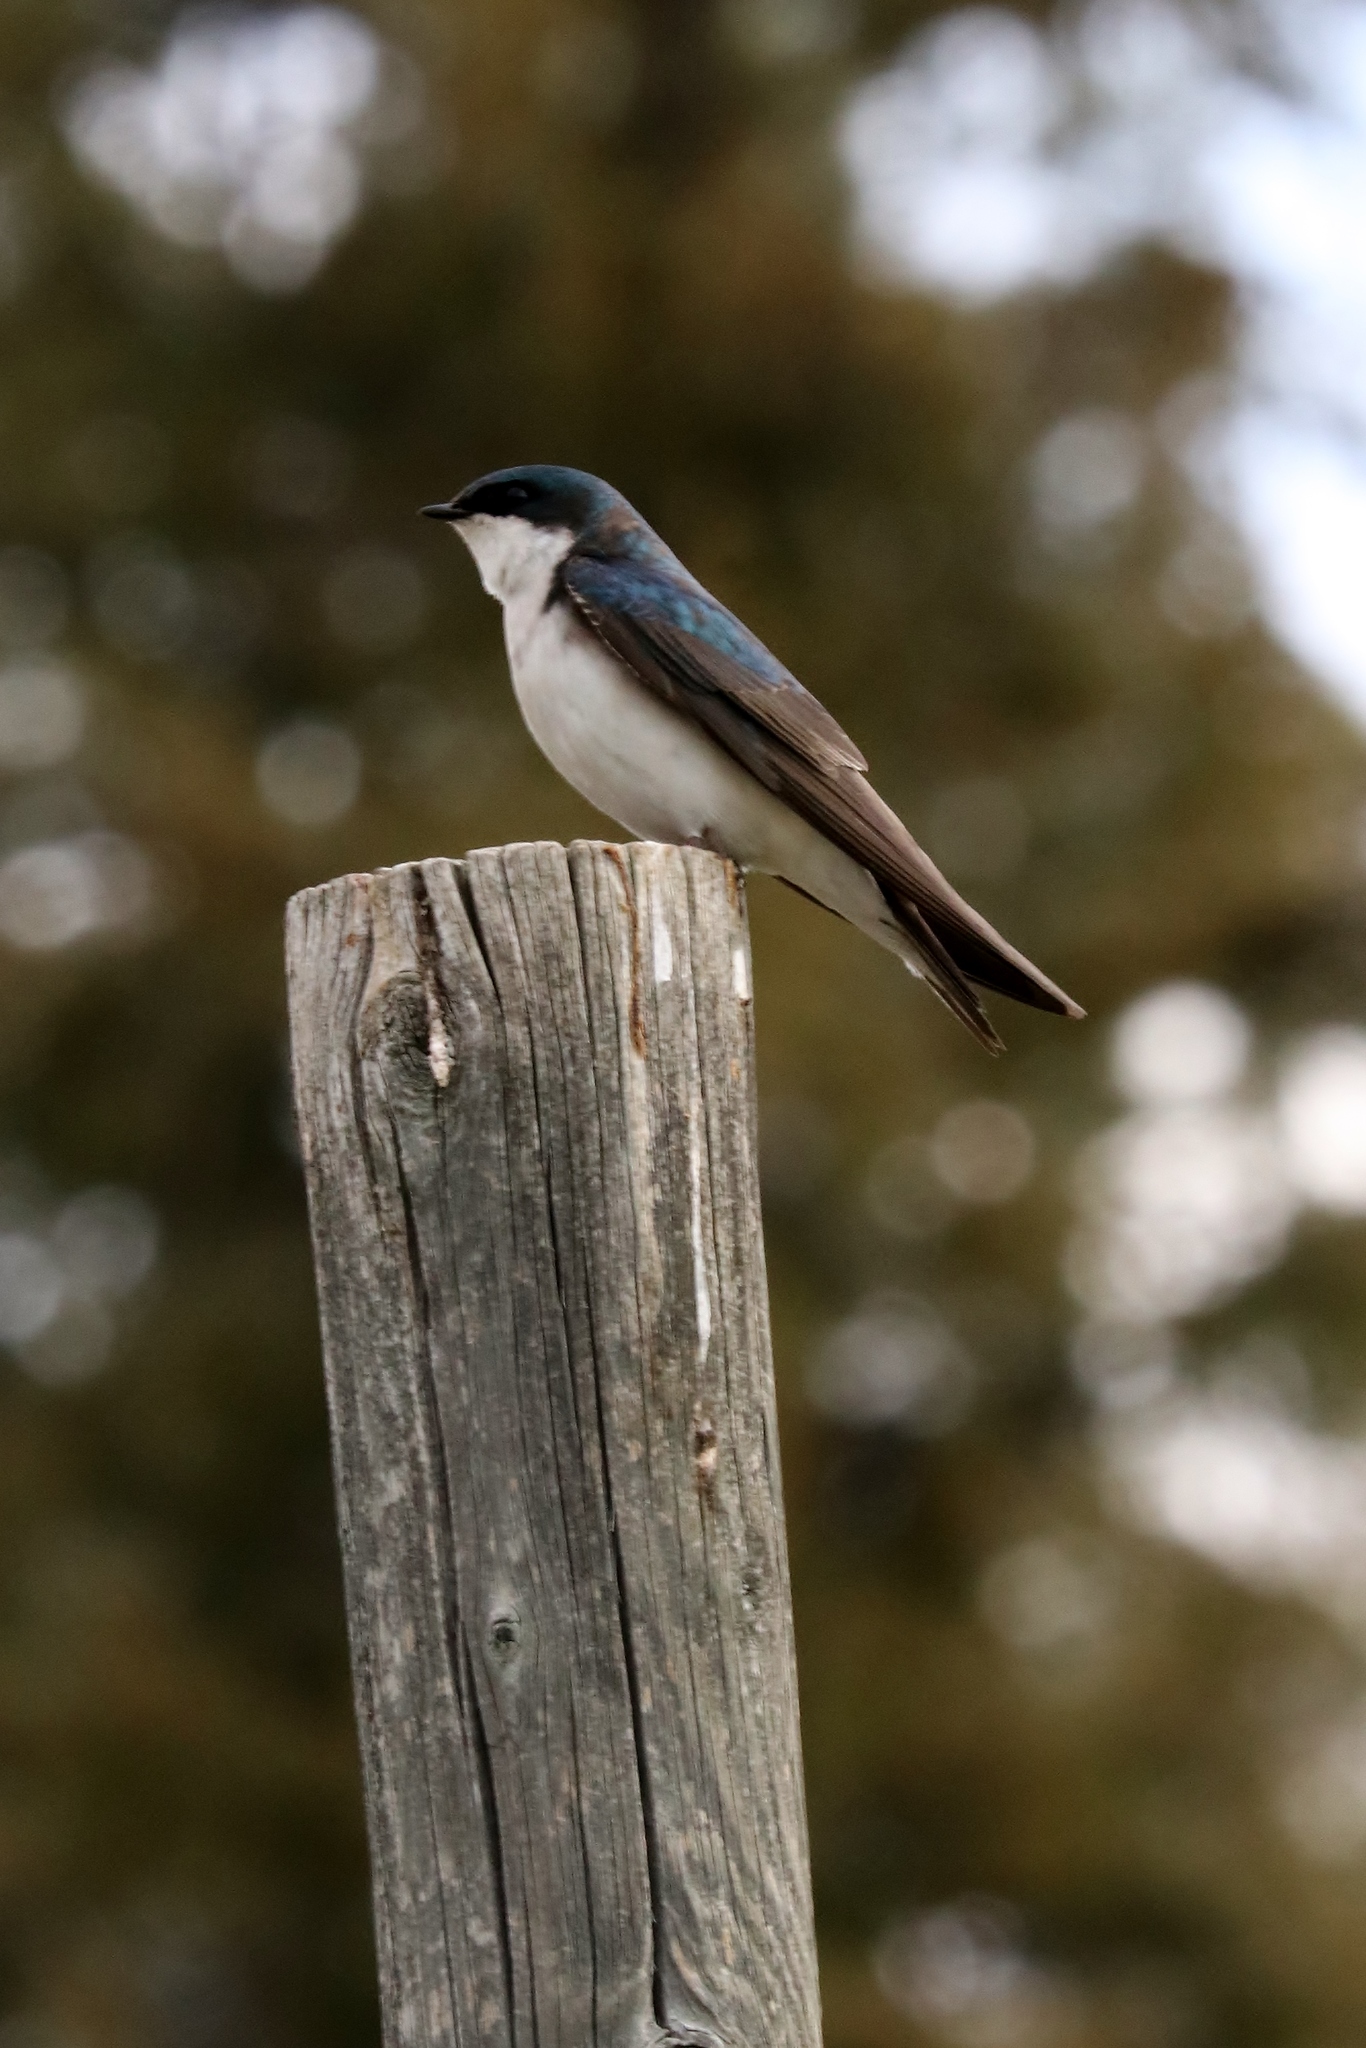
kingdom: Animalia
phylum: Chordata
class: Aves
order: Passeriformes
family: Hirundinidae
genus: Tachycineta
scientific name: Tachycineta bicolor
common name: Tree swallow
